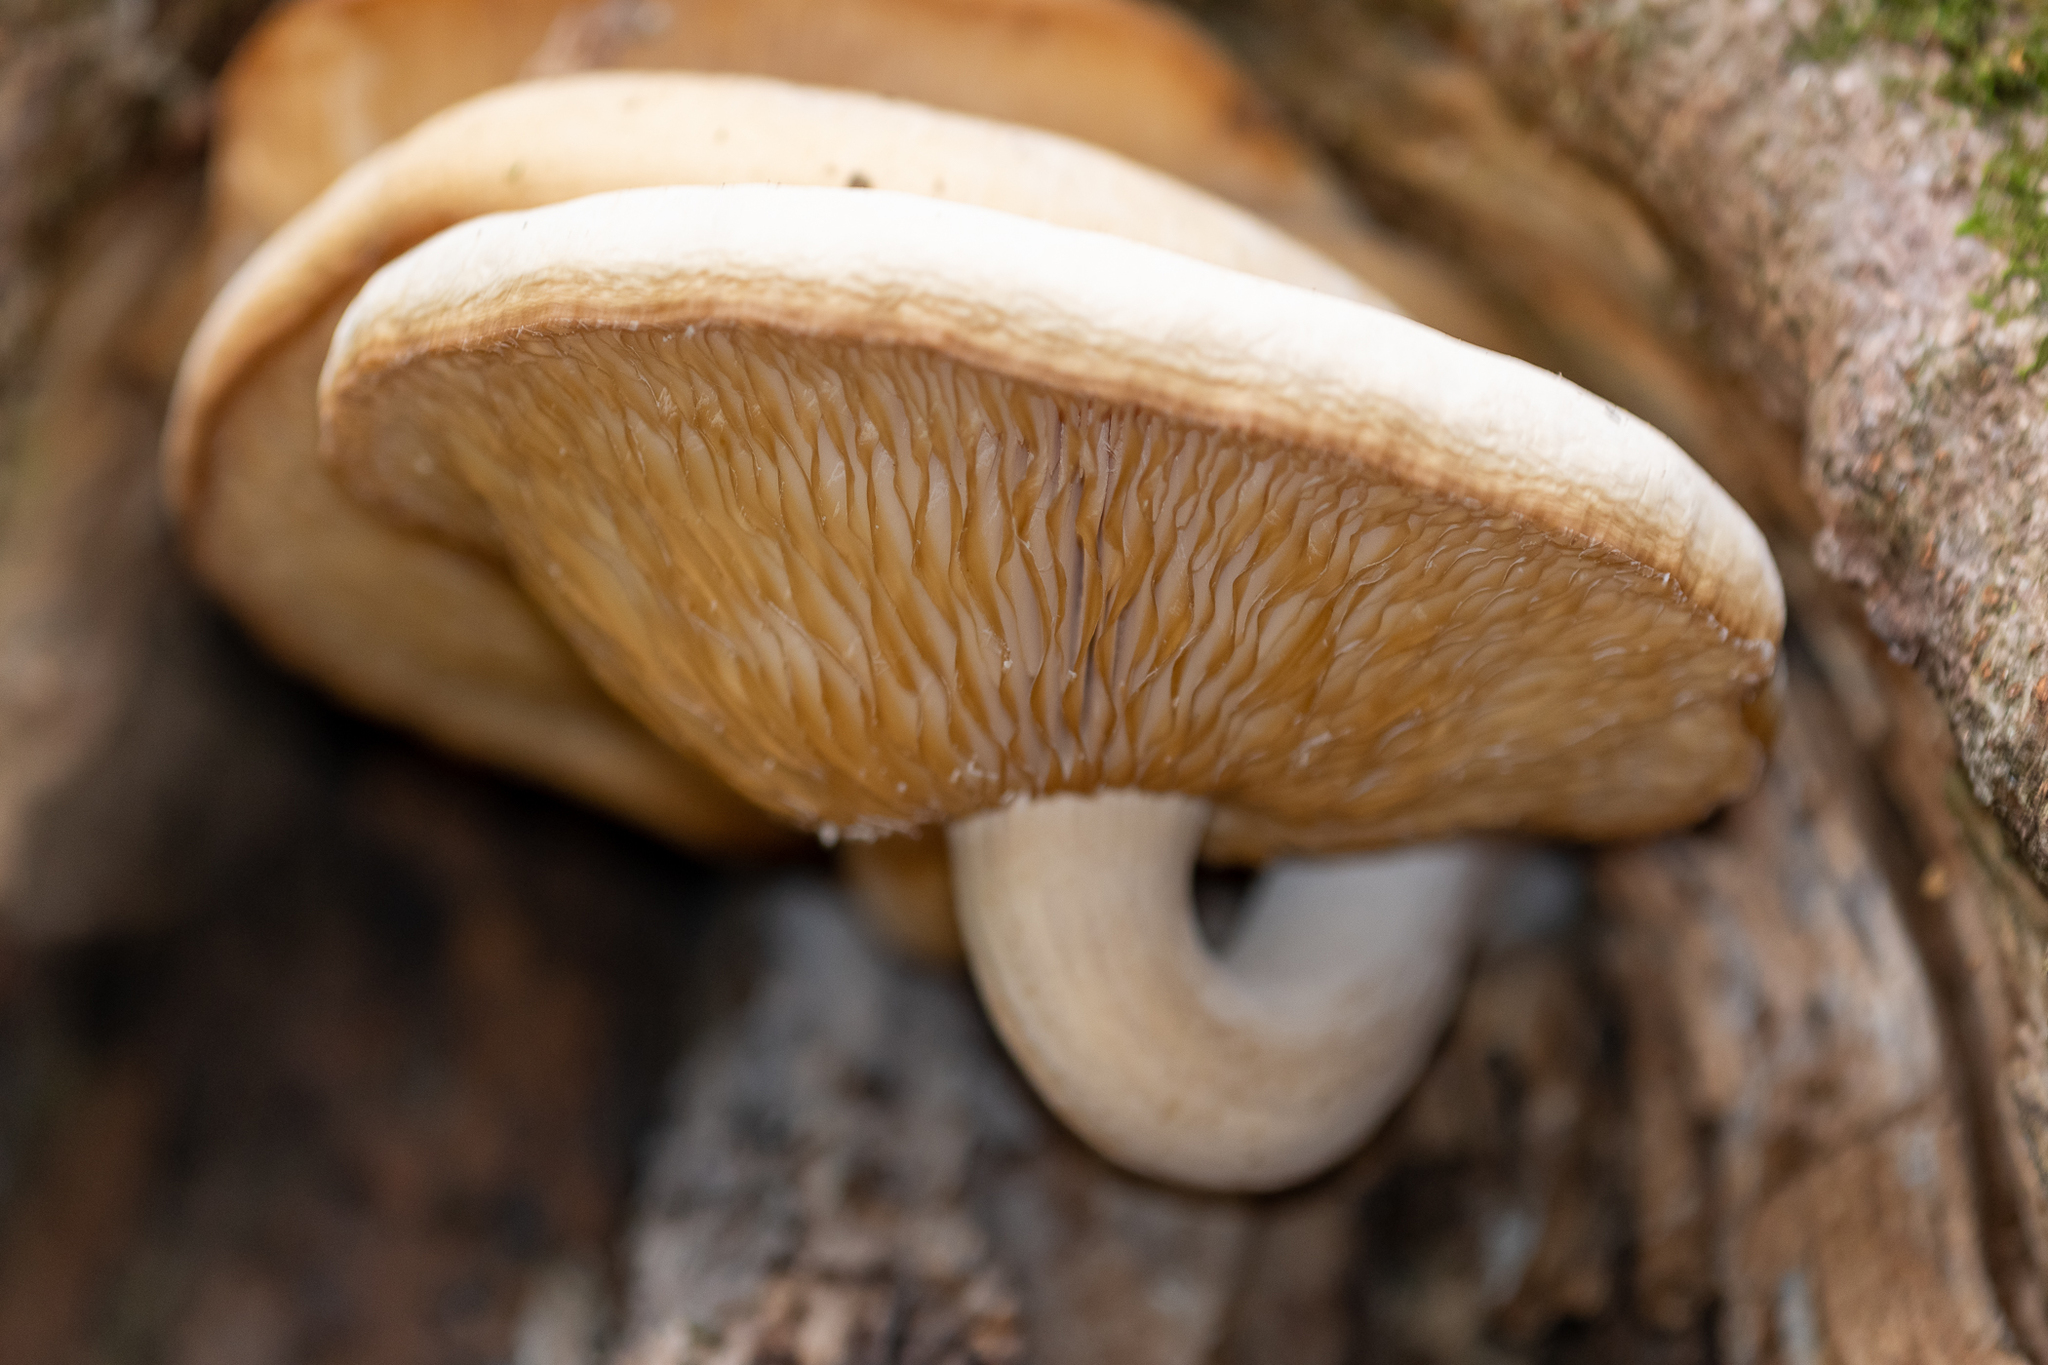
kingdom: Fungi
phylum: Basidiomycota
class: Agaricomycetes
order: Agaricales
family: Lyophyllaceae
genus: Hypsizygus
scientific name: Hypsizygus ulmarius
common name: Elm leech
